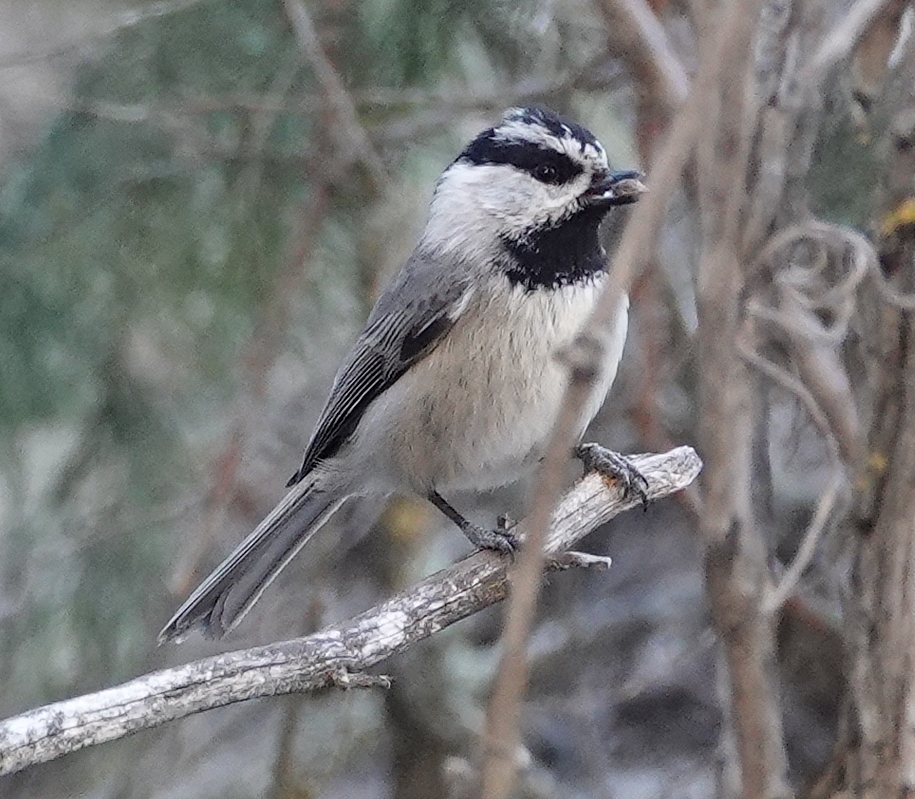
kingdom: Animalia
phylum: Chordata
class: Aves
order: Passeriformes
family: Paridae
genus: Poecile
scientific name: Poecile gambeli
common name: Mountain chickadee
